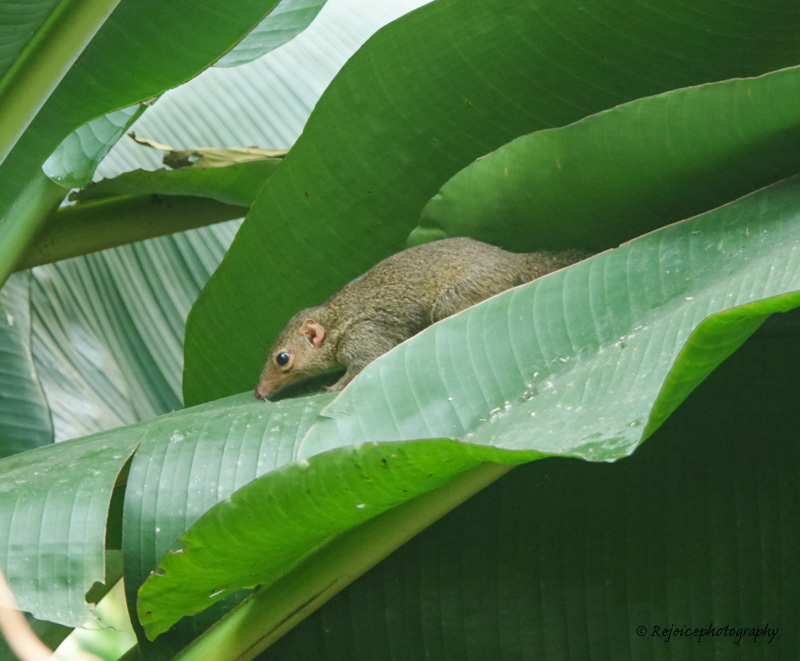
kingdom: Animalia
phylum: Chordata
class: Mammalia
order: Scandentia
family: Tupaiidae
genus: Tupaia
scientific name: Tupaia belangeri
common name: Northern treeshrew
